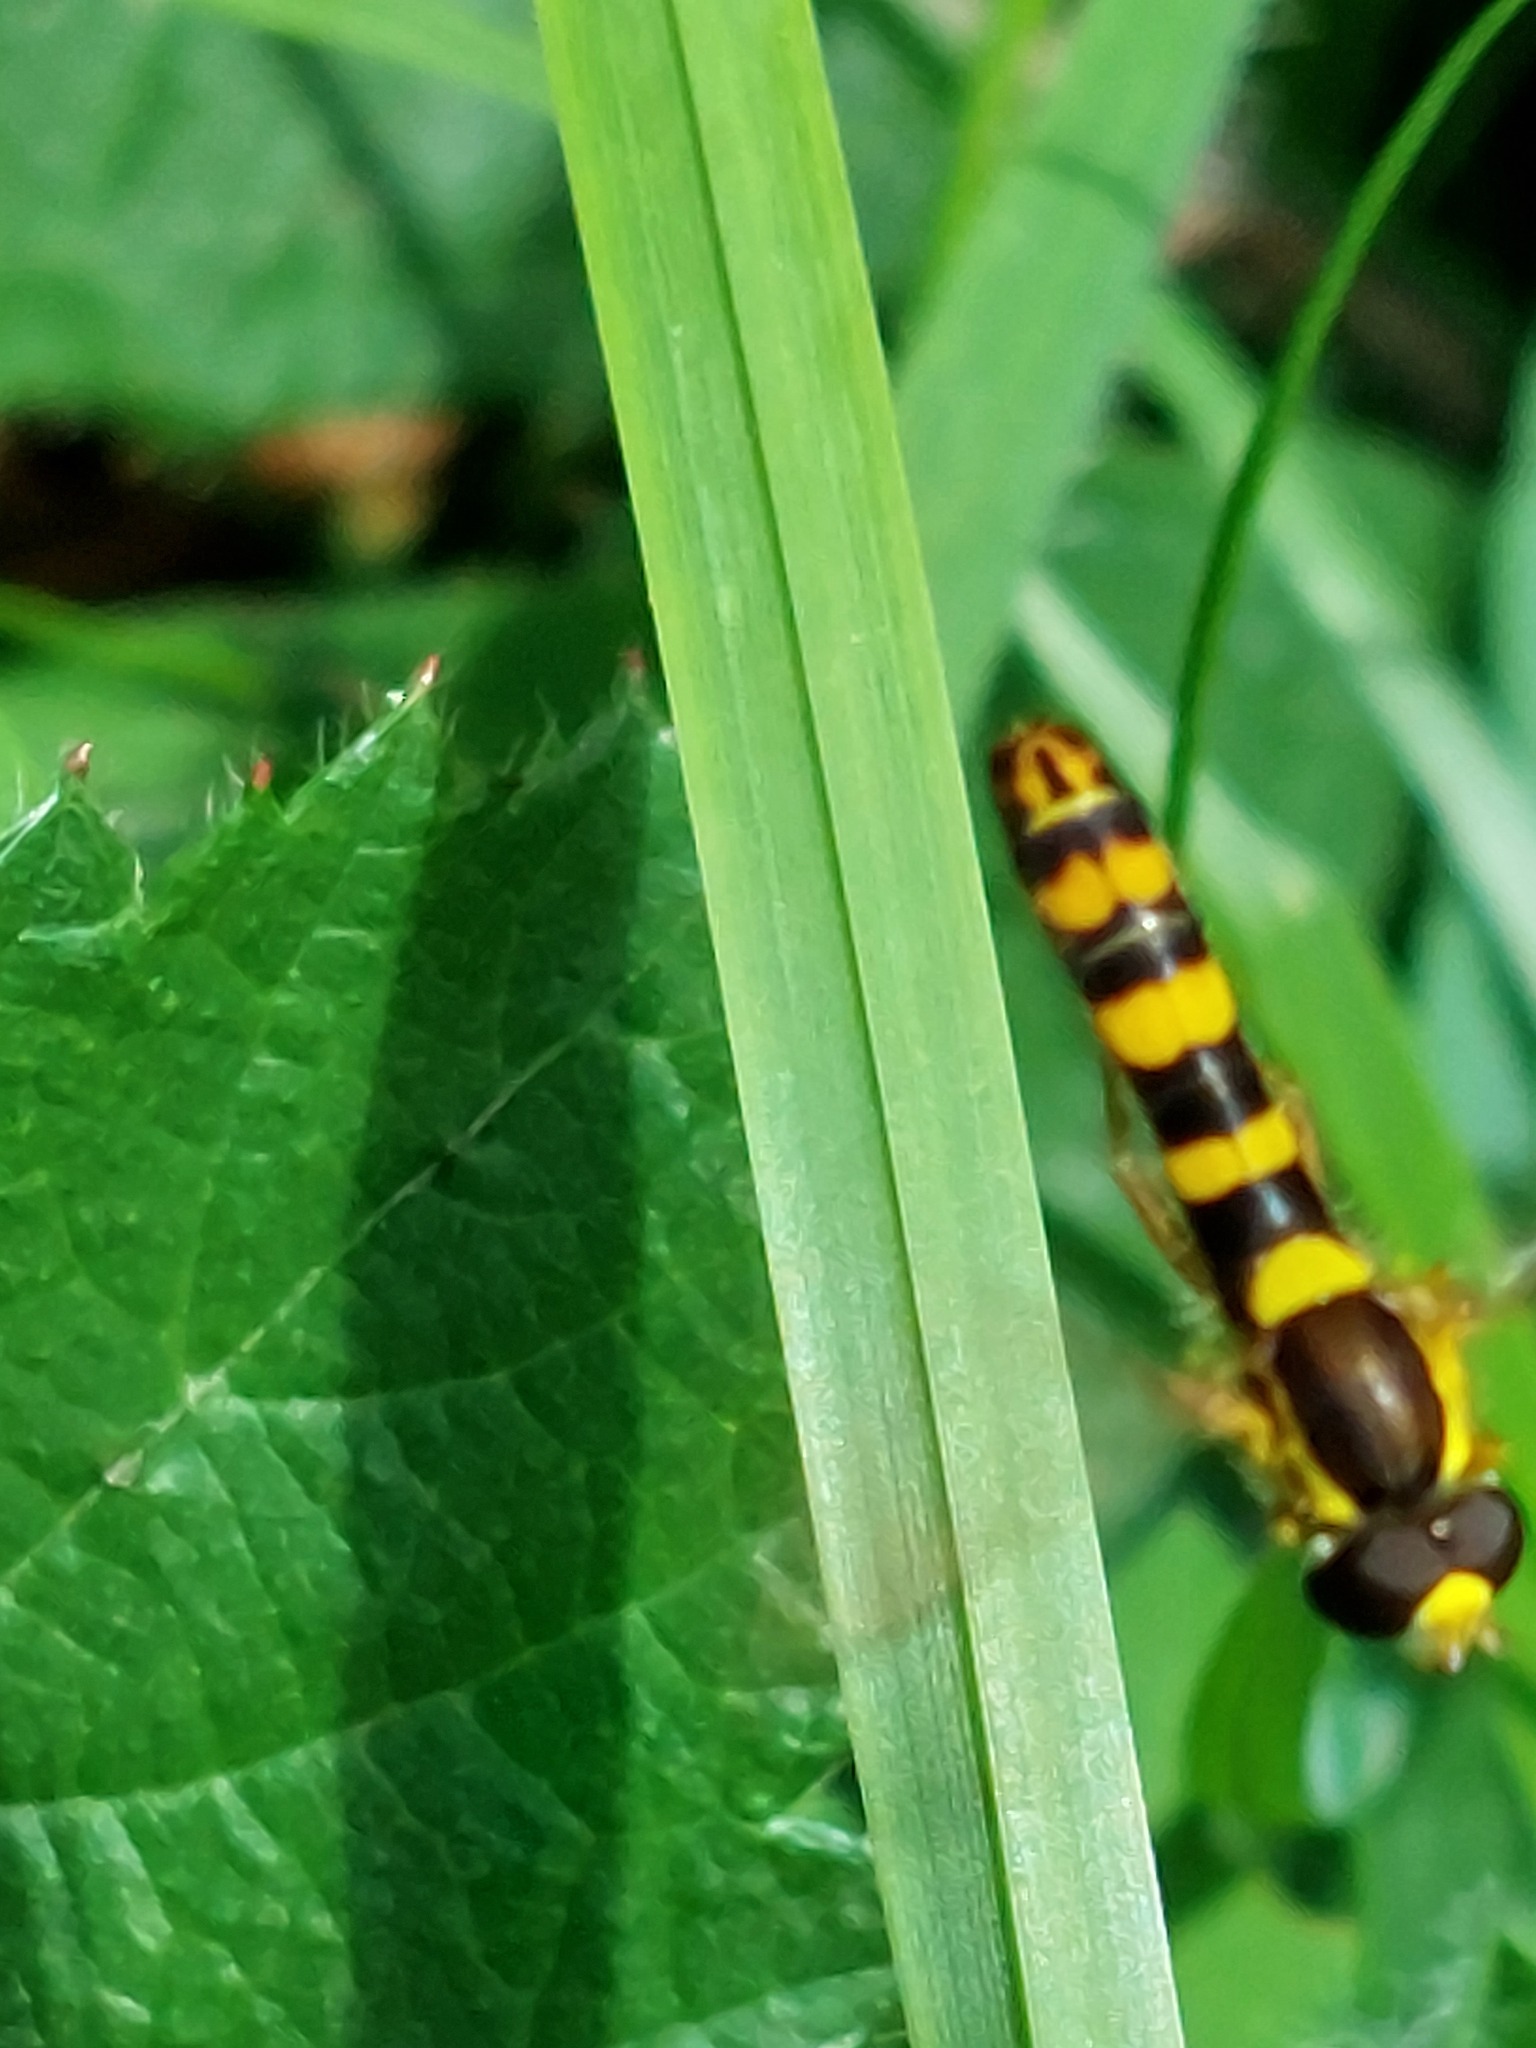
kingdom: Animalia
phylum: Arthropoda
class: Insecta
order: Diptera
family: Syrphidae
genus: Sphaerophoria
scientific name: Sphaerophoria scripta
